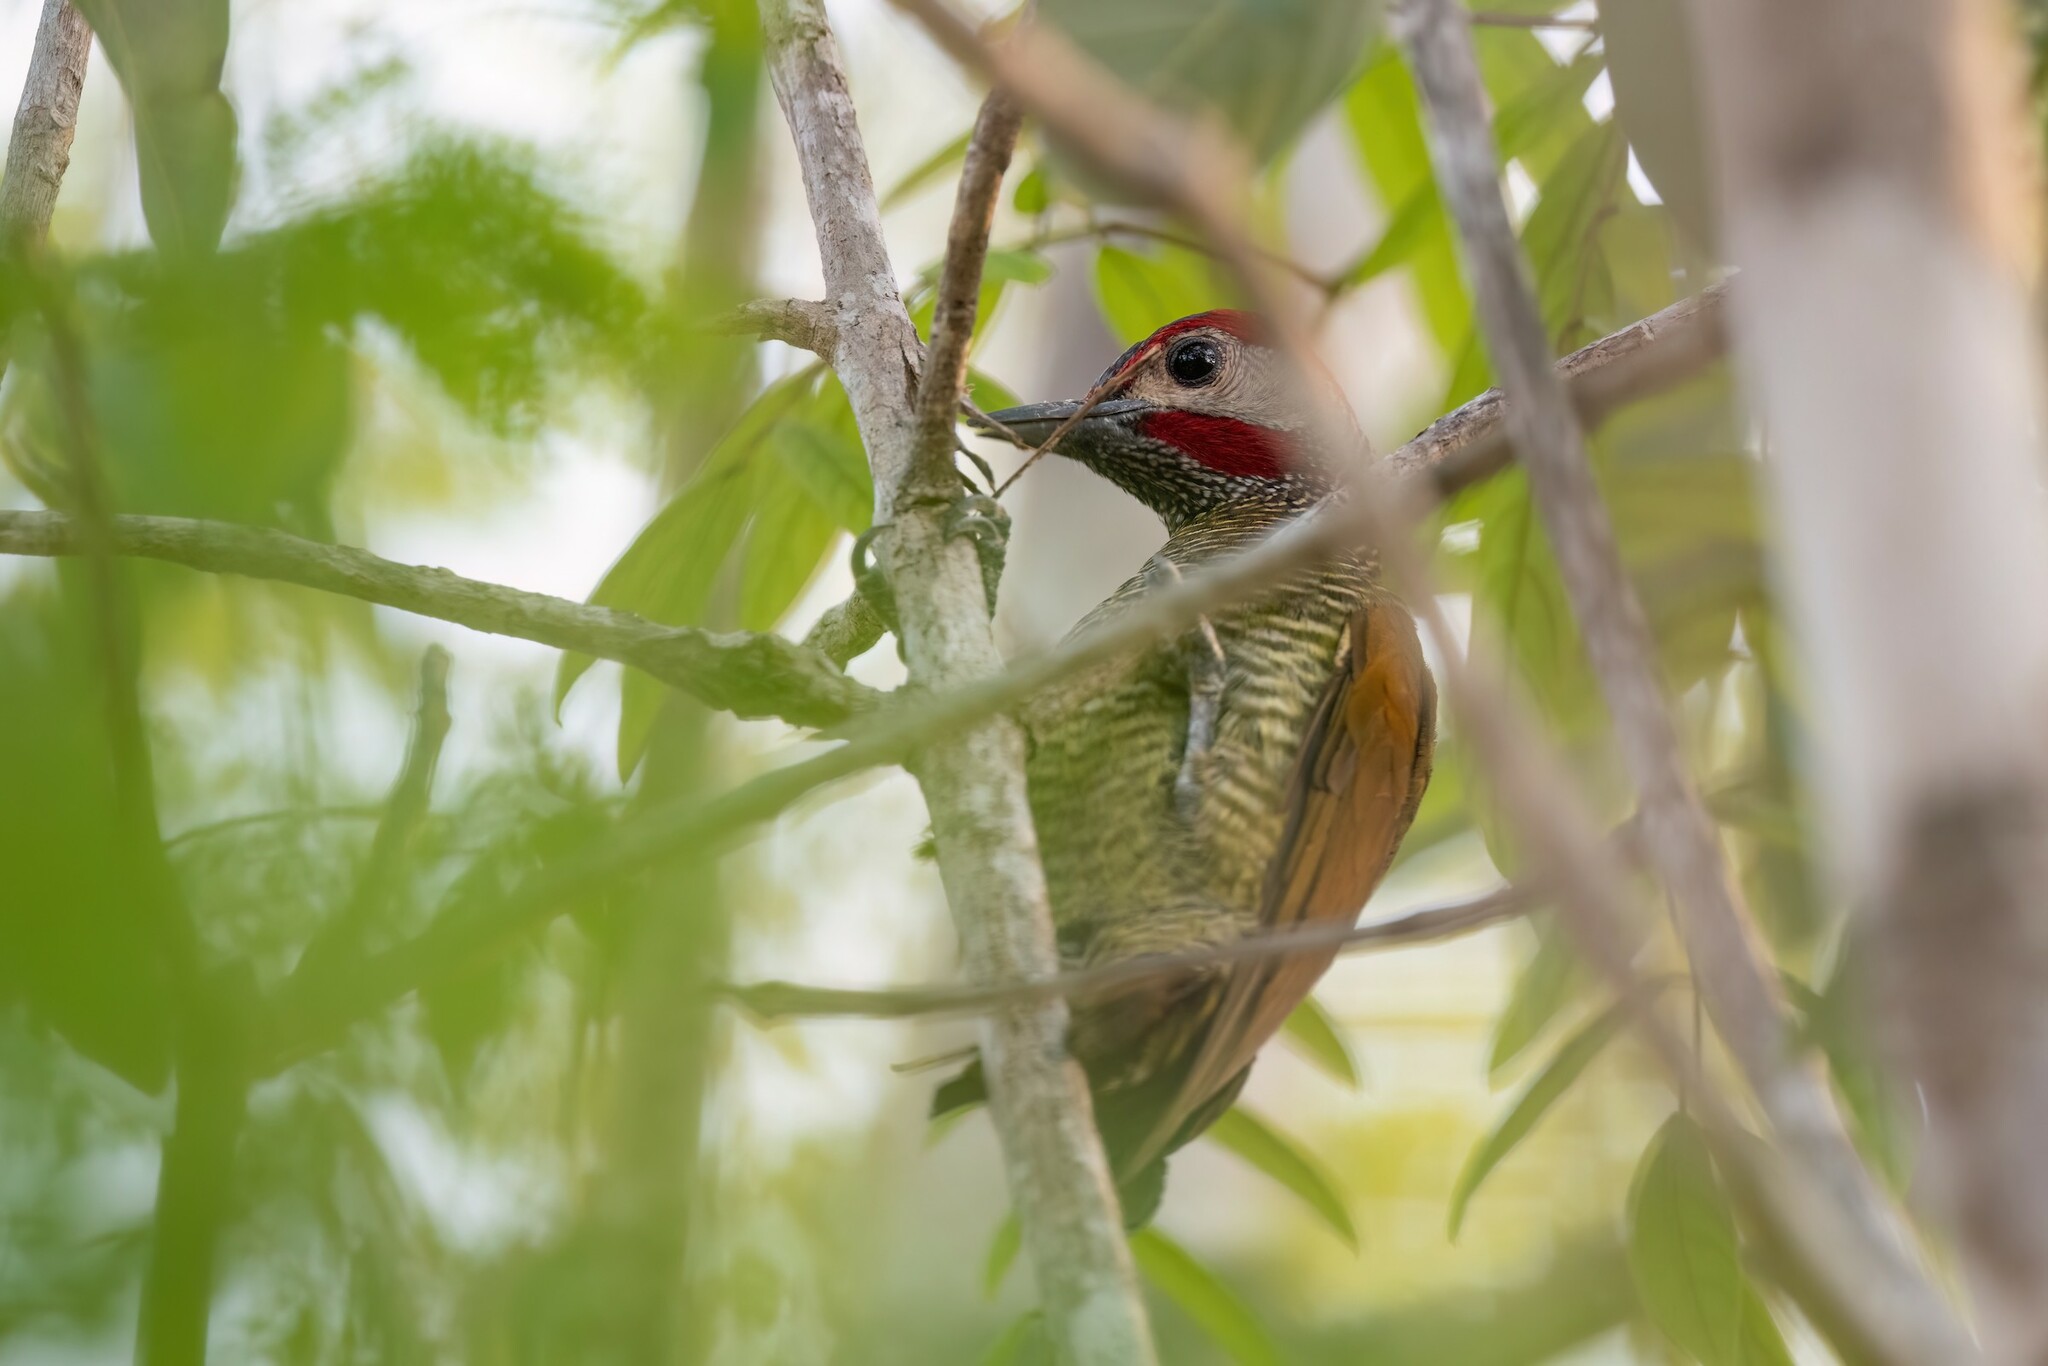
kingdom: Animalia
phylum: Chordata
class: Aves
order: Piciformes
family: Picidae
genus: Colaptes
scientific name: Colaptes rubiginosus
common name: Golden-olive woodpecker
